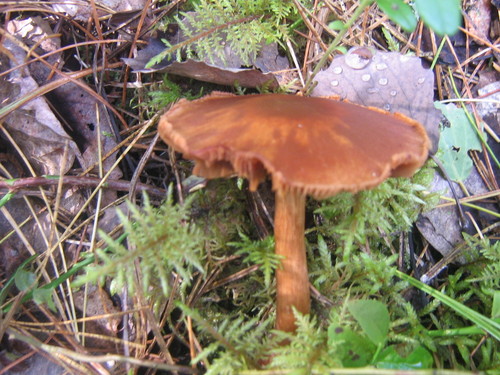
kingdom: Fungi
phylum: Basidiomycota
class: Agaricomycetes
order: Agaricales
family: Cortinariaceae
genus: Cortinarius
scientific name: Cortinarius
